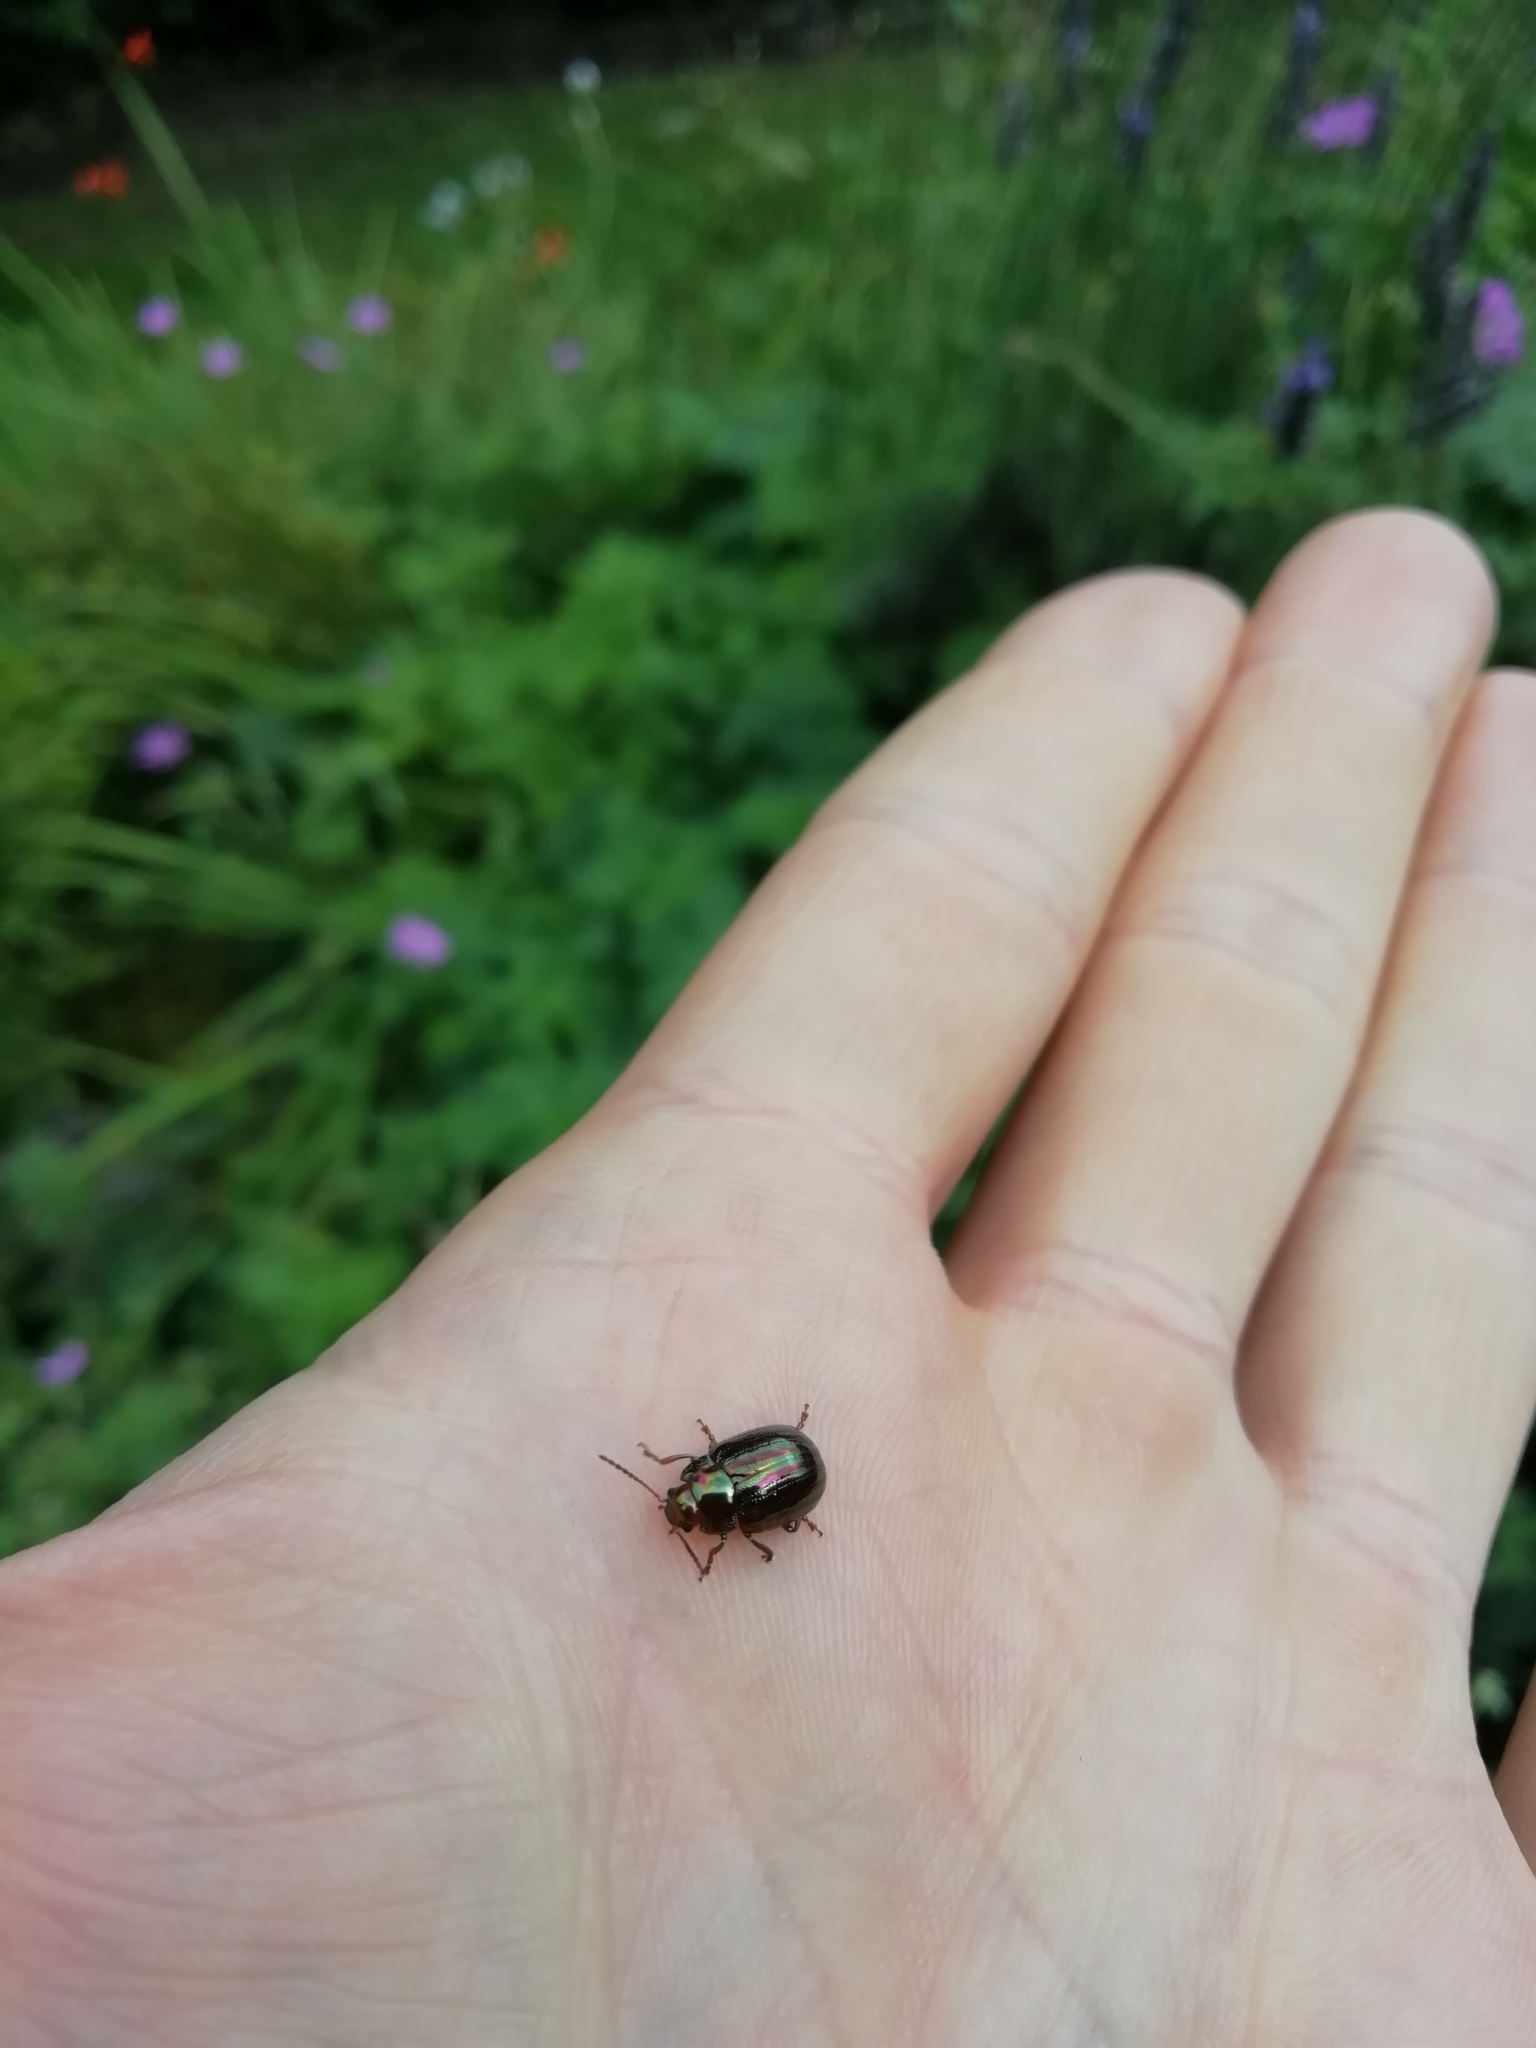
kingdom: Animalia
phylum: Arthropoda
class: Insecta
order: Coleoptera
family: Chrysomelidae
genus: Chrysolina
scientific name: Chrysolina americana
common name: Rosemary beetle
